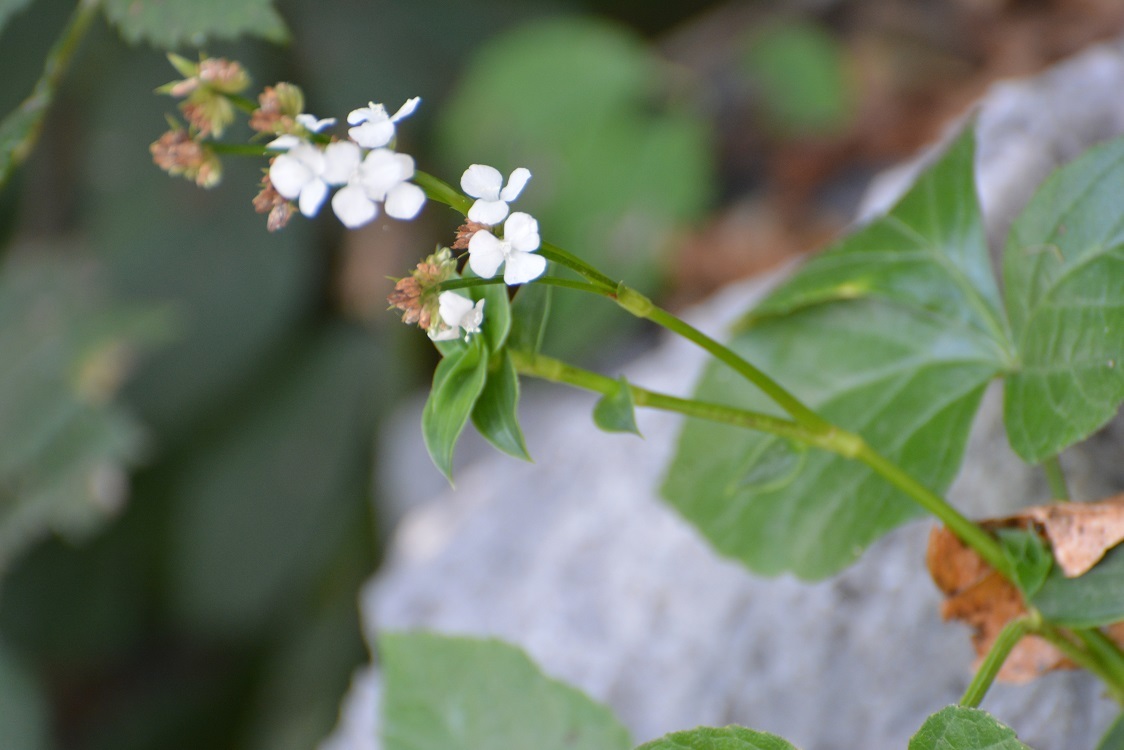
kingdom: Plantae
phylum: Tracheophyta
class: Liliopsida
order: Commelinales
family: Commelinaceae
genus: Callisia
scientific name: Callisia gentlei
